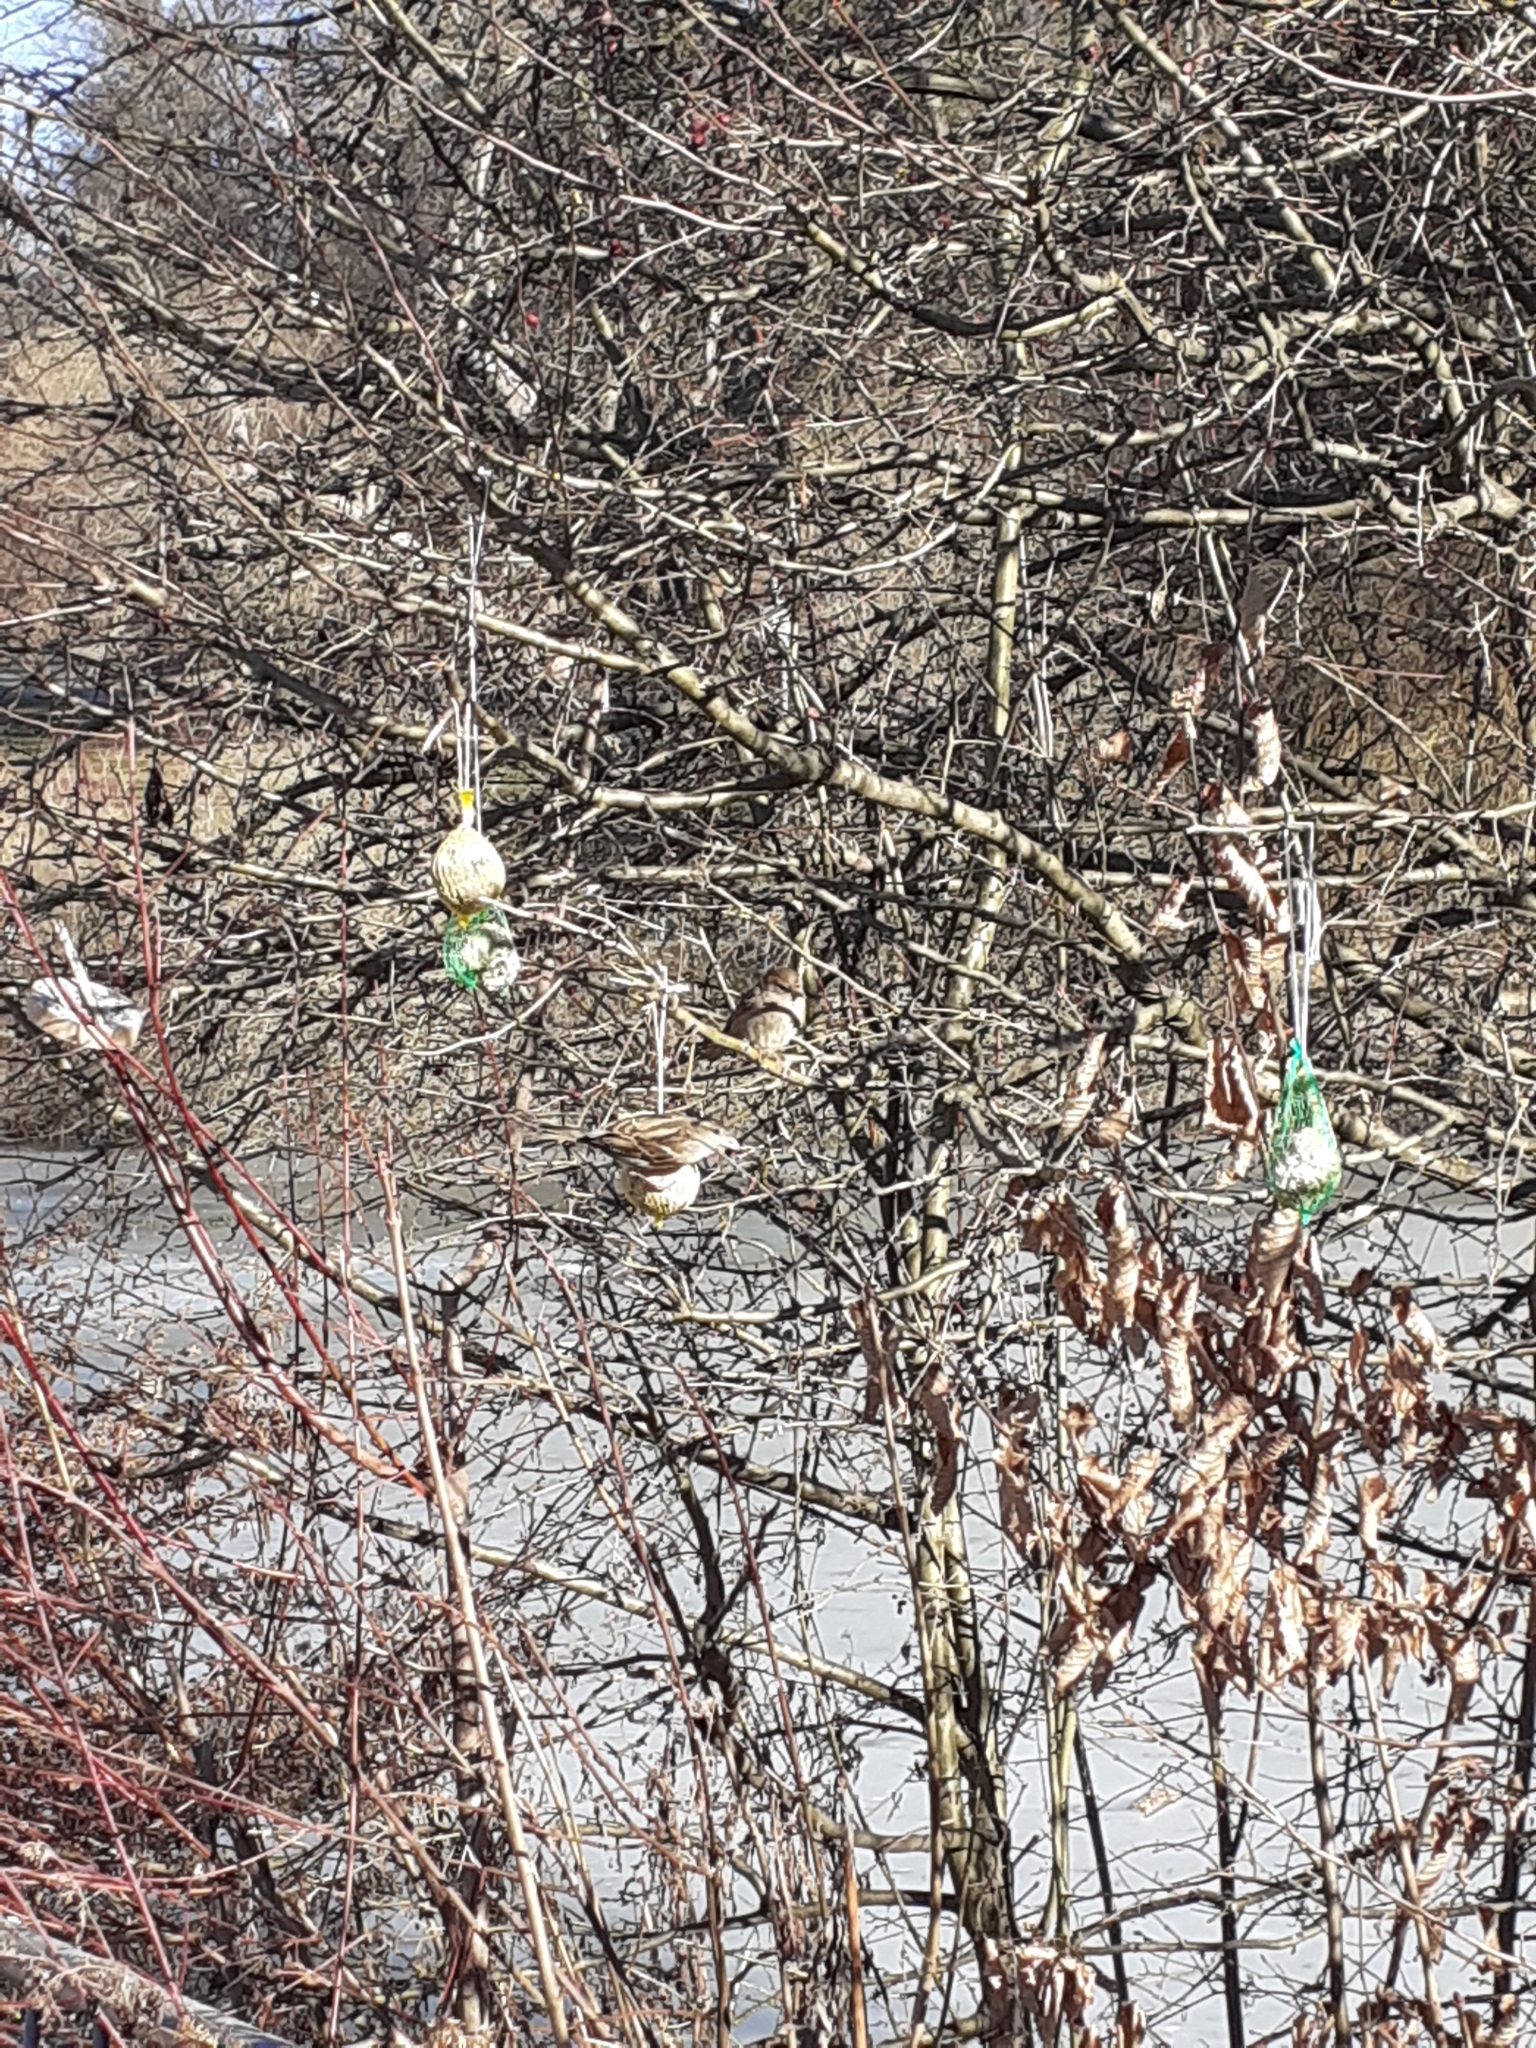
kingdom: Animalia
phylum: Chordata
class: Aves
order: Passeriformes
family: Passeridae
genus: Passer
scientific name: Passer domesticus
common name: House sparrow
